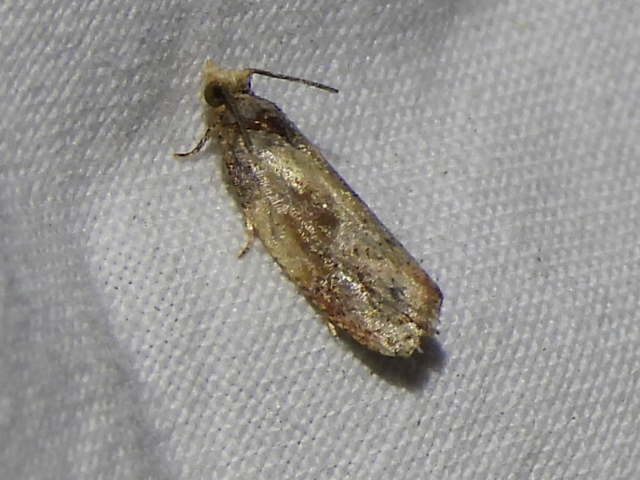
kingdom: Animalia
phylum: Arthropoda
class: Insecta
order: Lepidoptera
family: Tortricidae
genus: Eumarozia
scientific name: Eumarozia malachitana
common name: Sculptured moth
